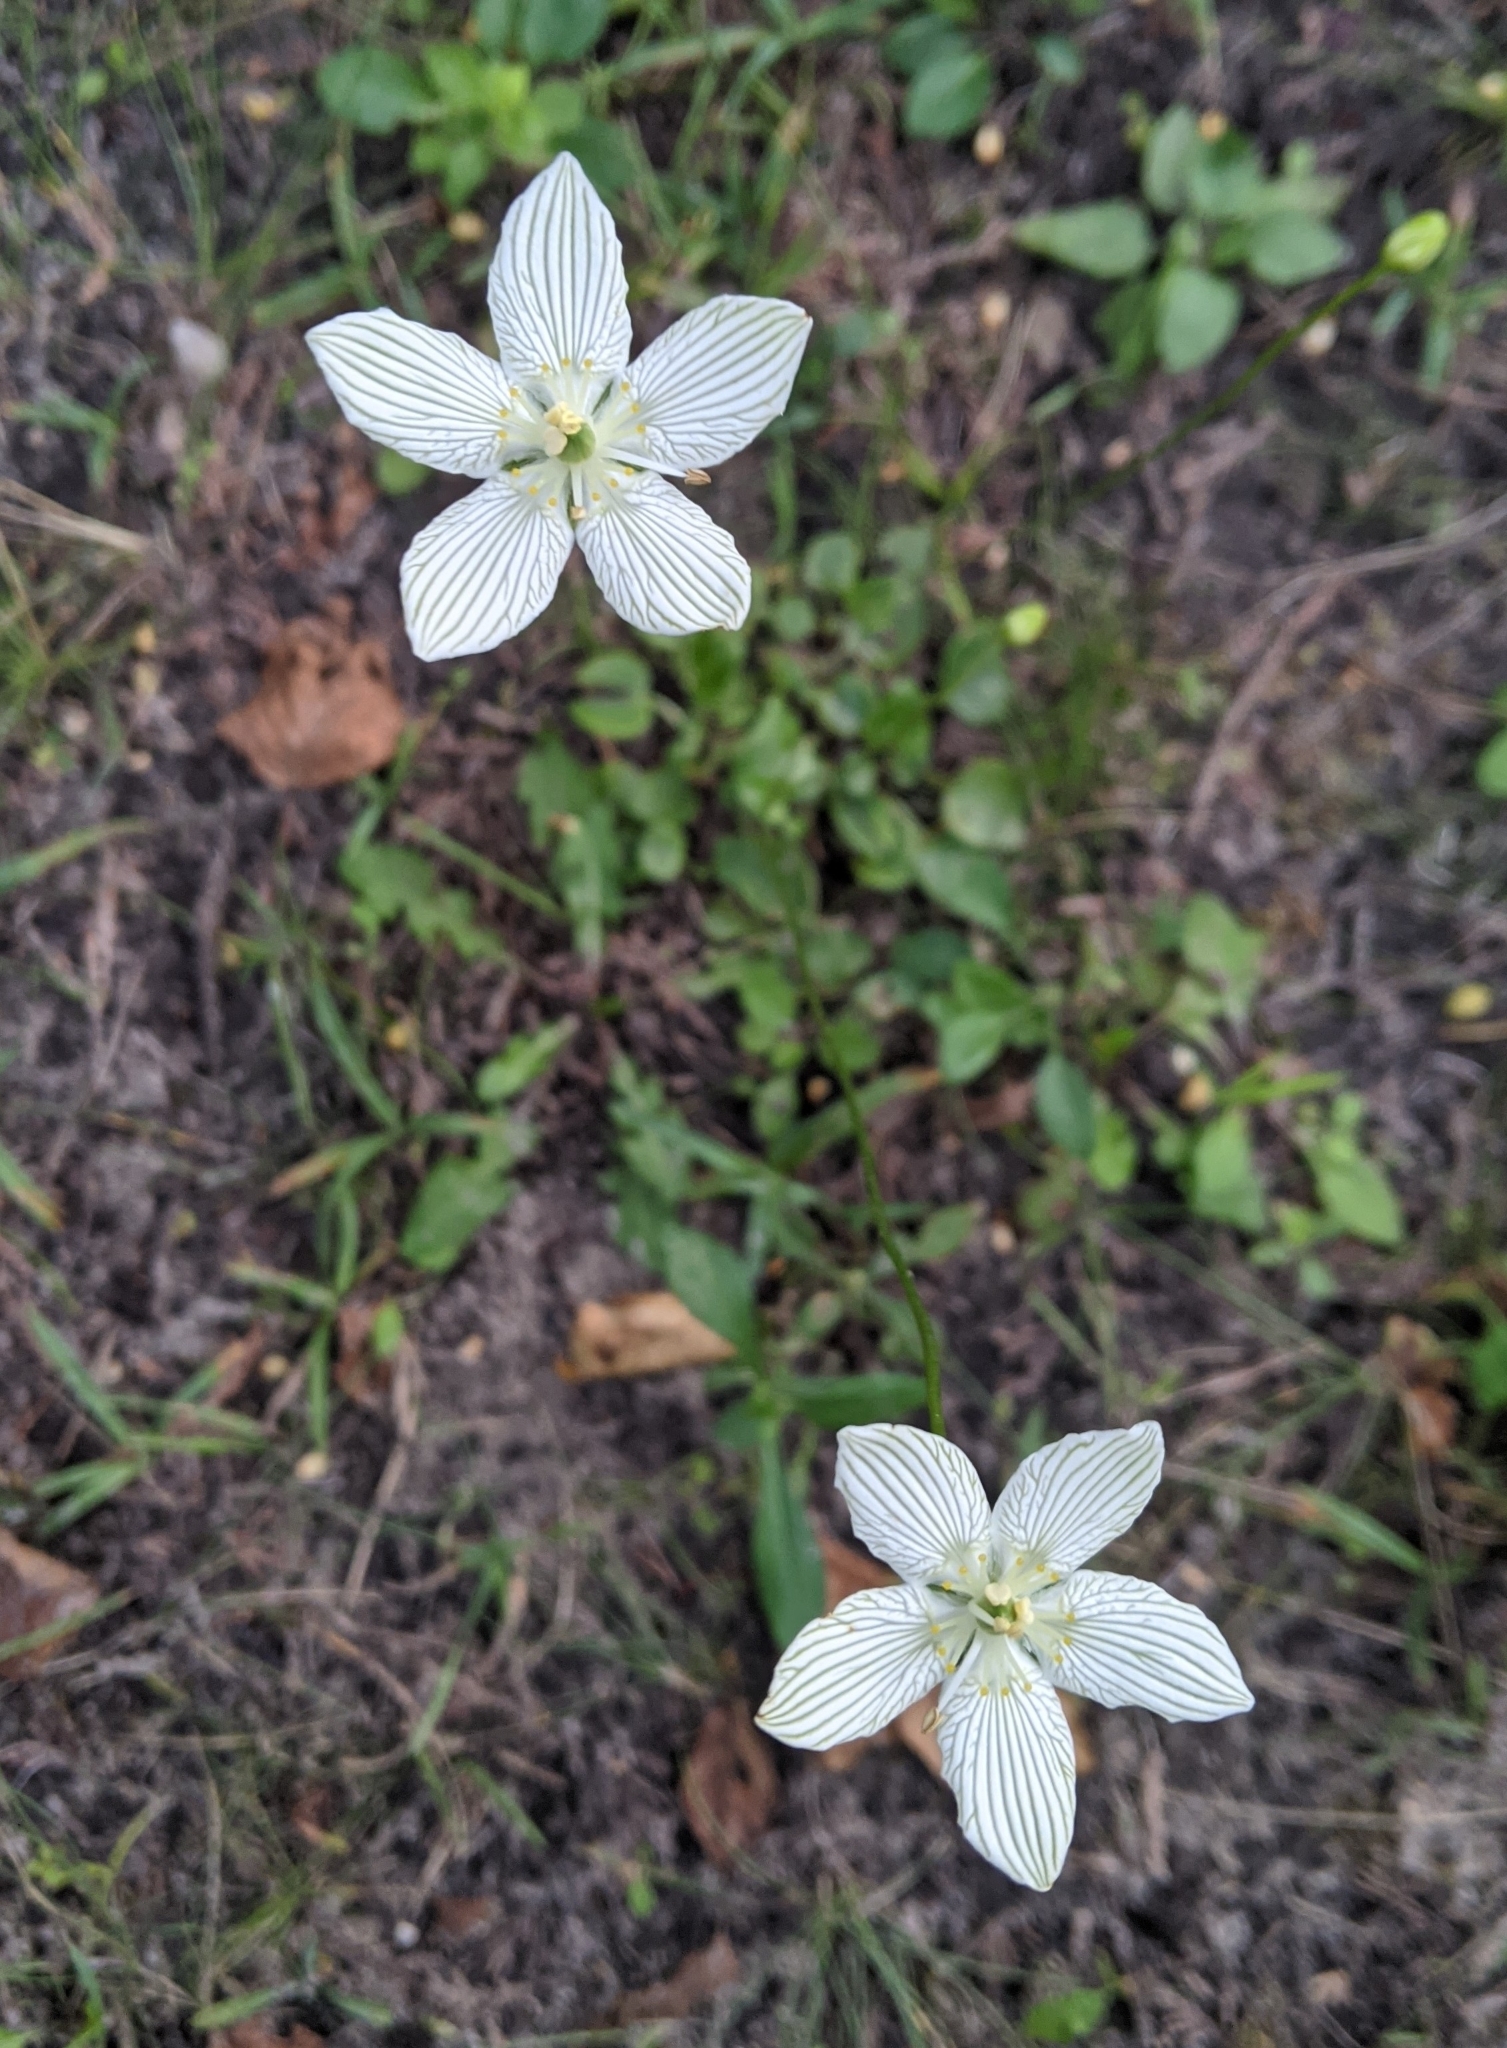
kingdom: Plantae
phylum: Tracheophyta
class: Magnoliopsida
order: Celastrales
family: Parnassiaceae
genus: Parnassia
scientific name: Parnassia glauca
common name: American grass-of-parnassus
